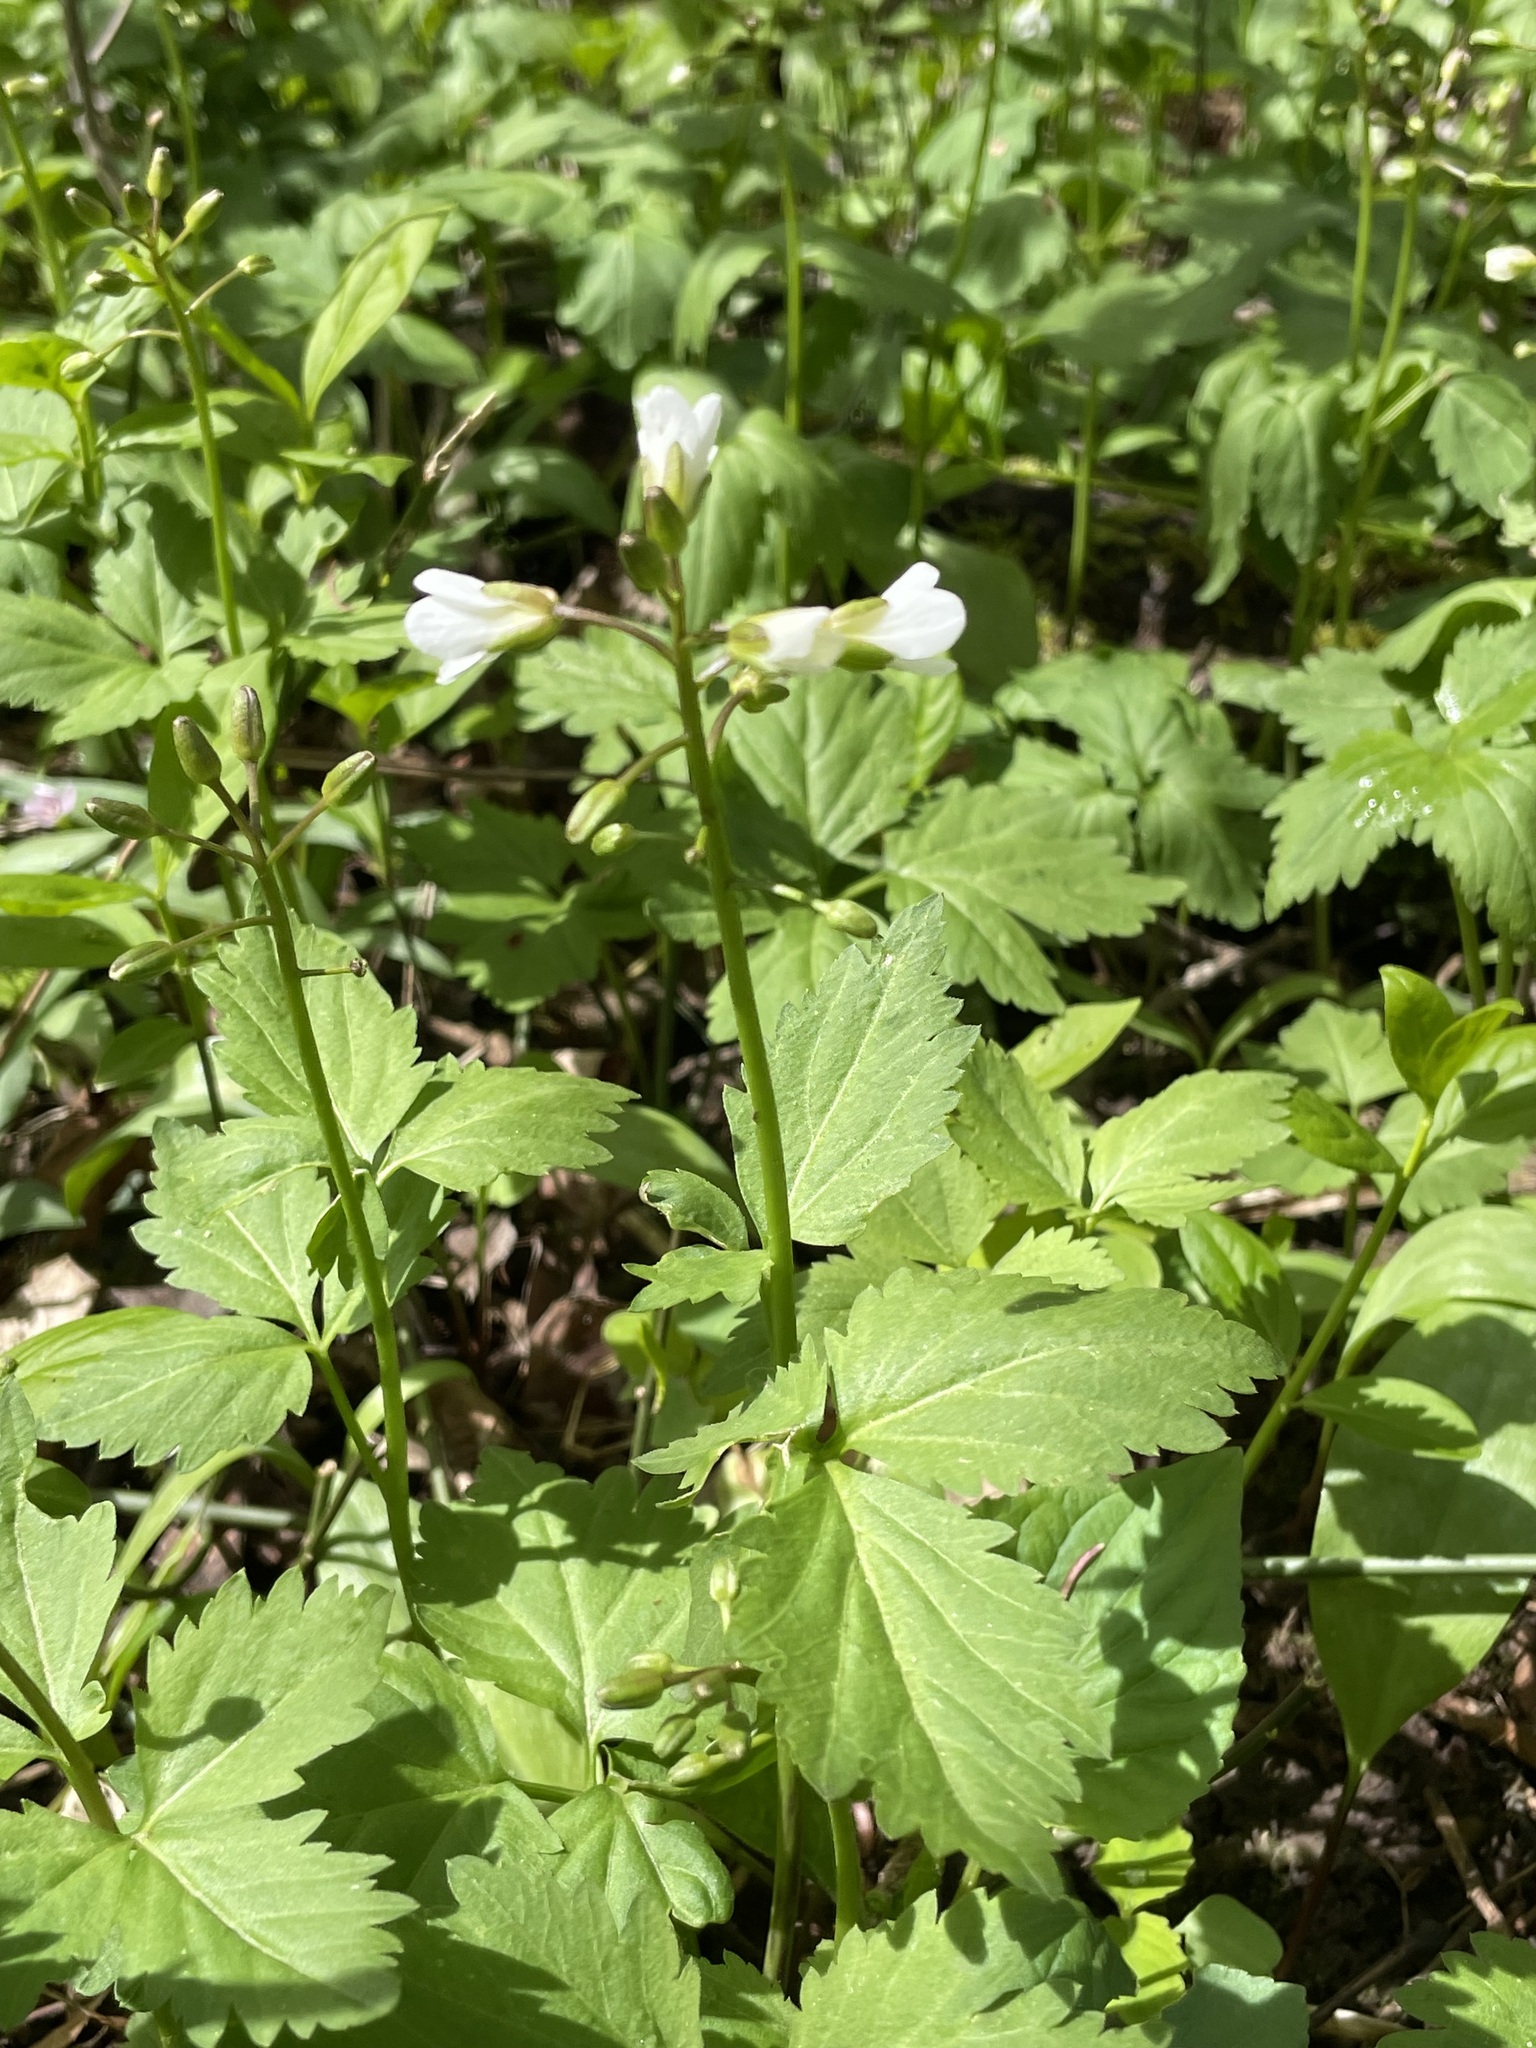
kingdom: Plantae
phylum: Tracheophyta
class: Magnoliopsida
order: Brassicales
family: Brassicaceae
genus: Cardamine
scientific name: Cardamine maxima
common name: Great bittercress
